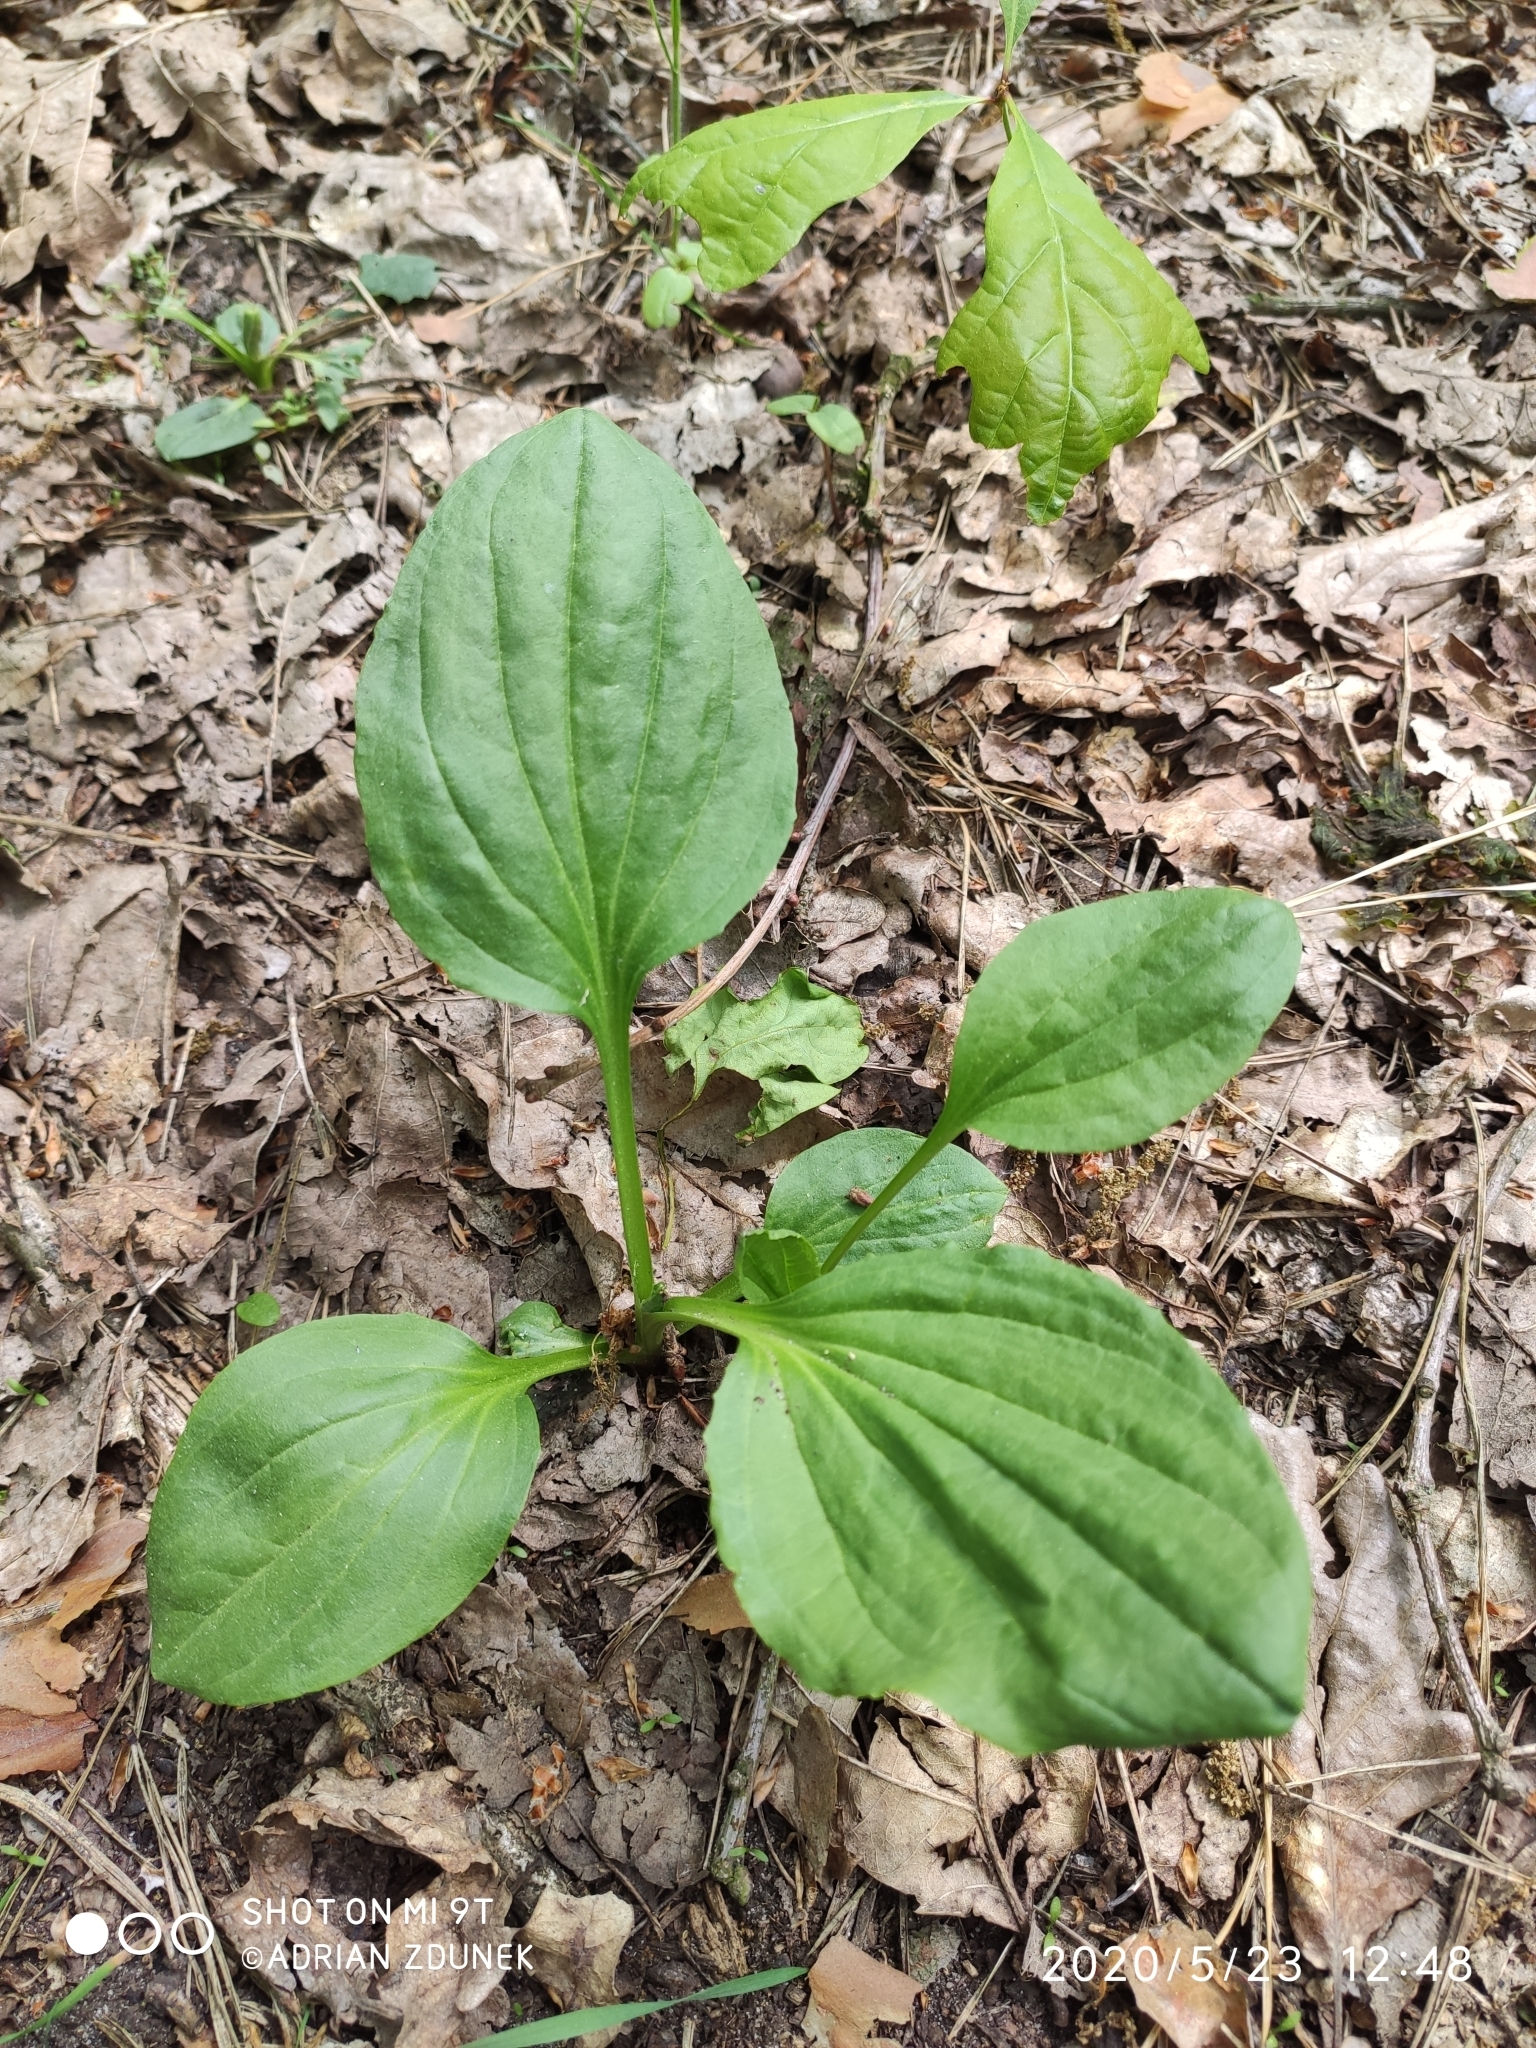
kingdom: Plantae
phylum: Tracheophyta
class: Magnoliopsida
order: Lamiales
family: Plantaginaceae
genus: Plantago
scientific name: Plantago major
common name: Common plantain
